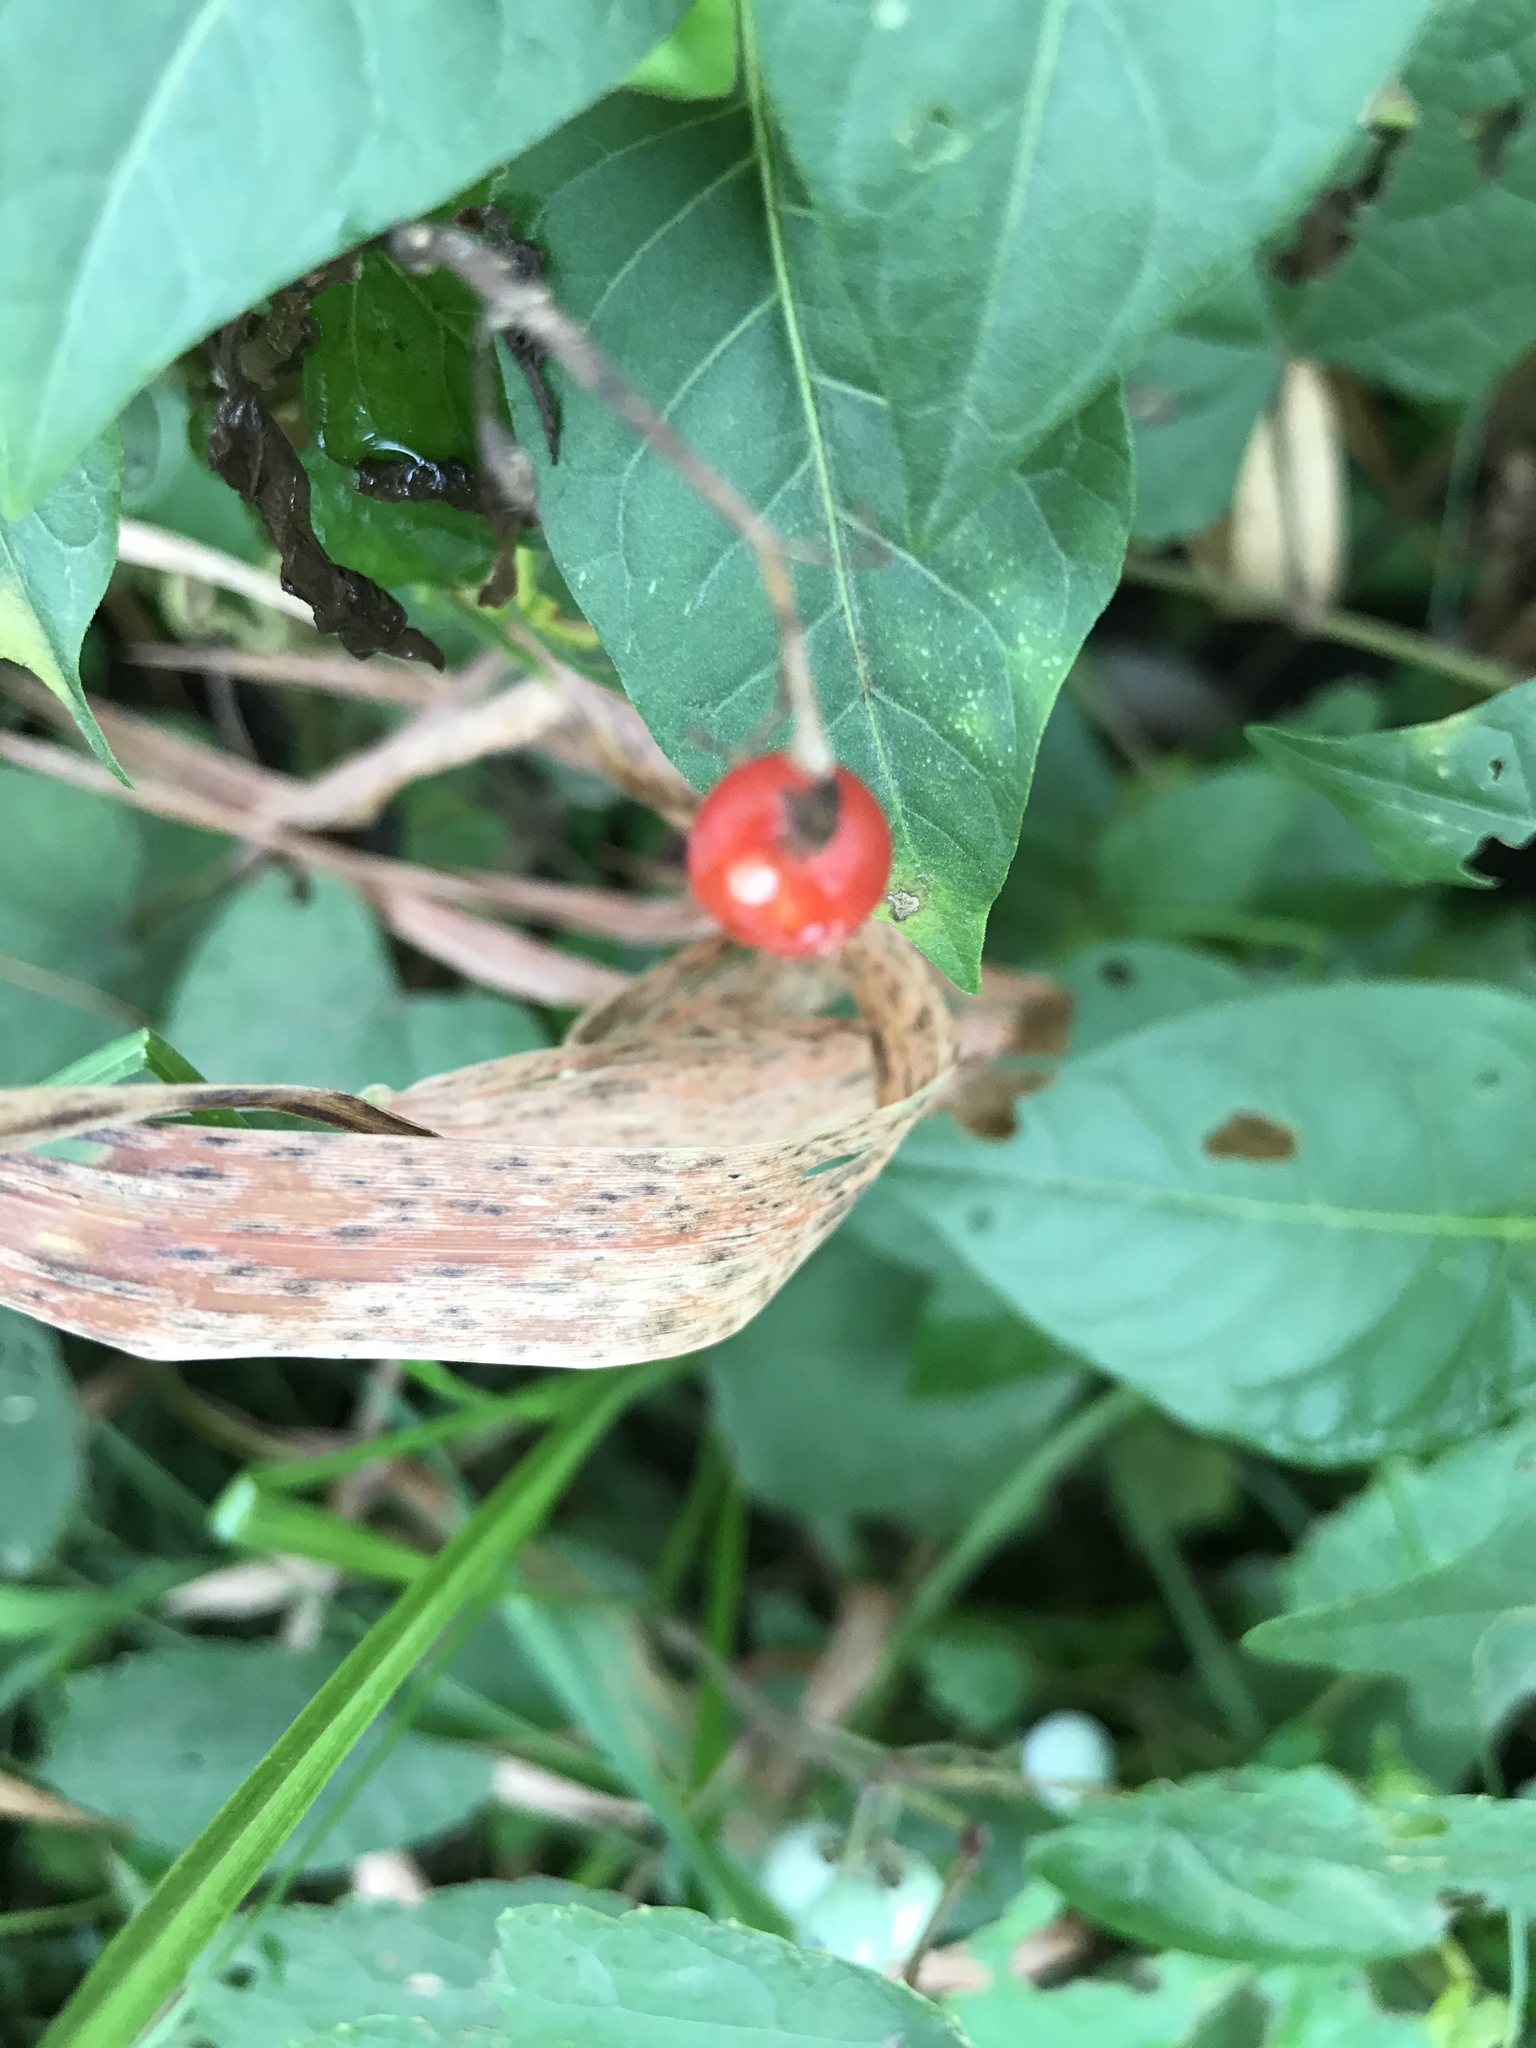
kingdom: Plantae
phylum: Tracheophyta
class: Magnoliopsida
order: Solanales
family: Solanaceae
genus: Solanum
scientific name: Solanum dulcamara
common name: Climbing nightshade
